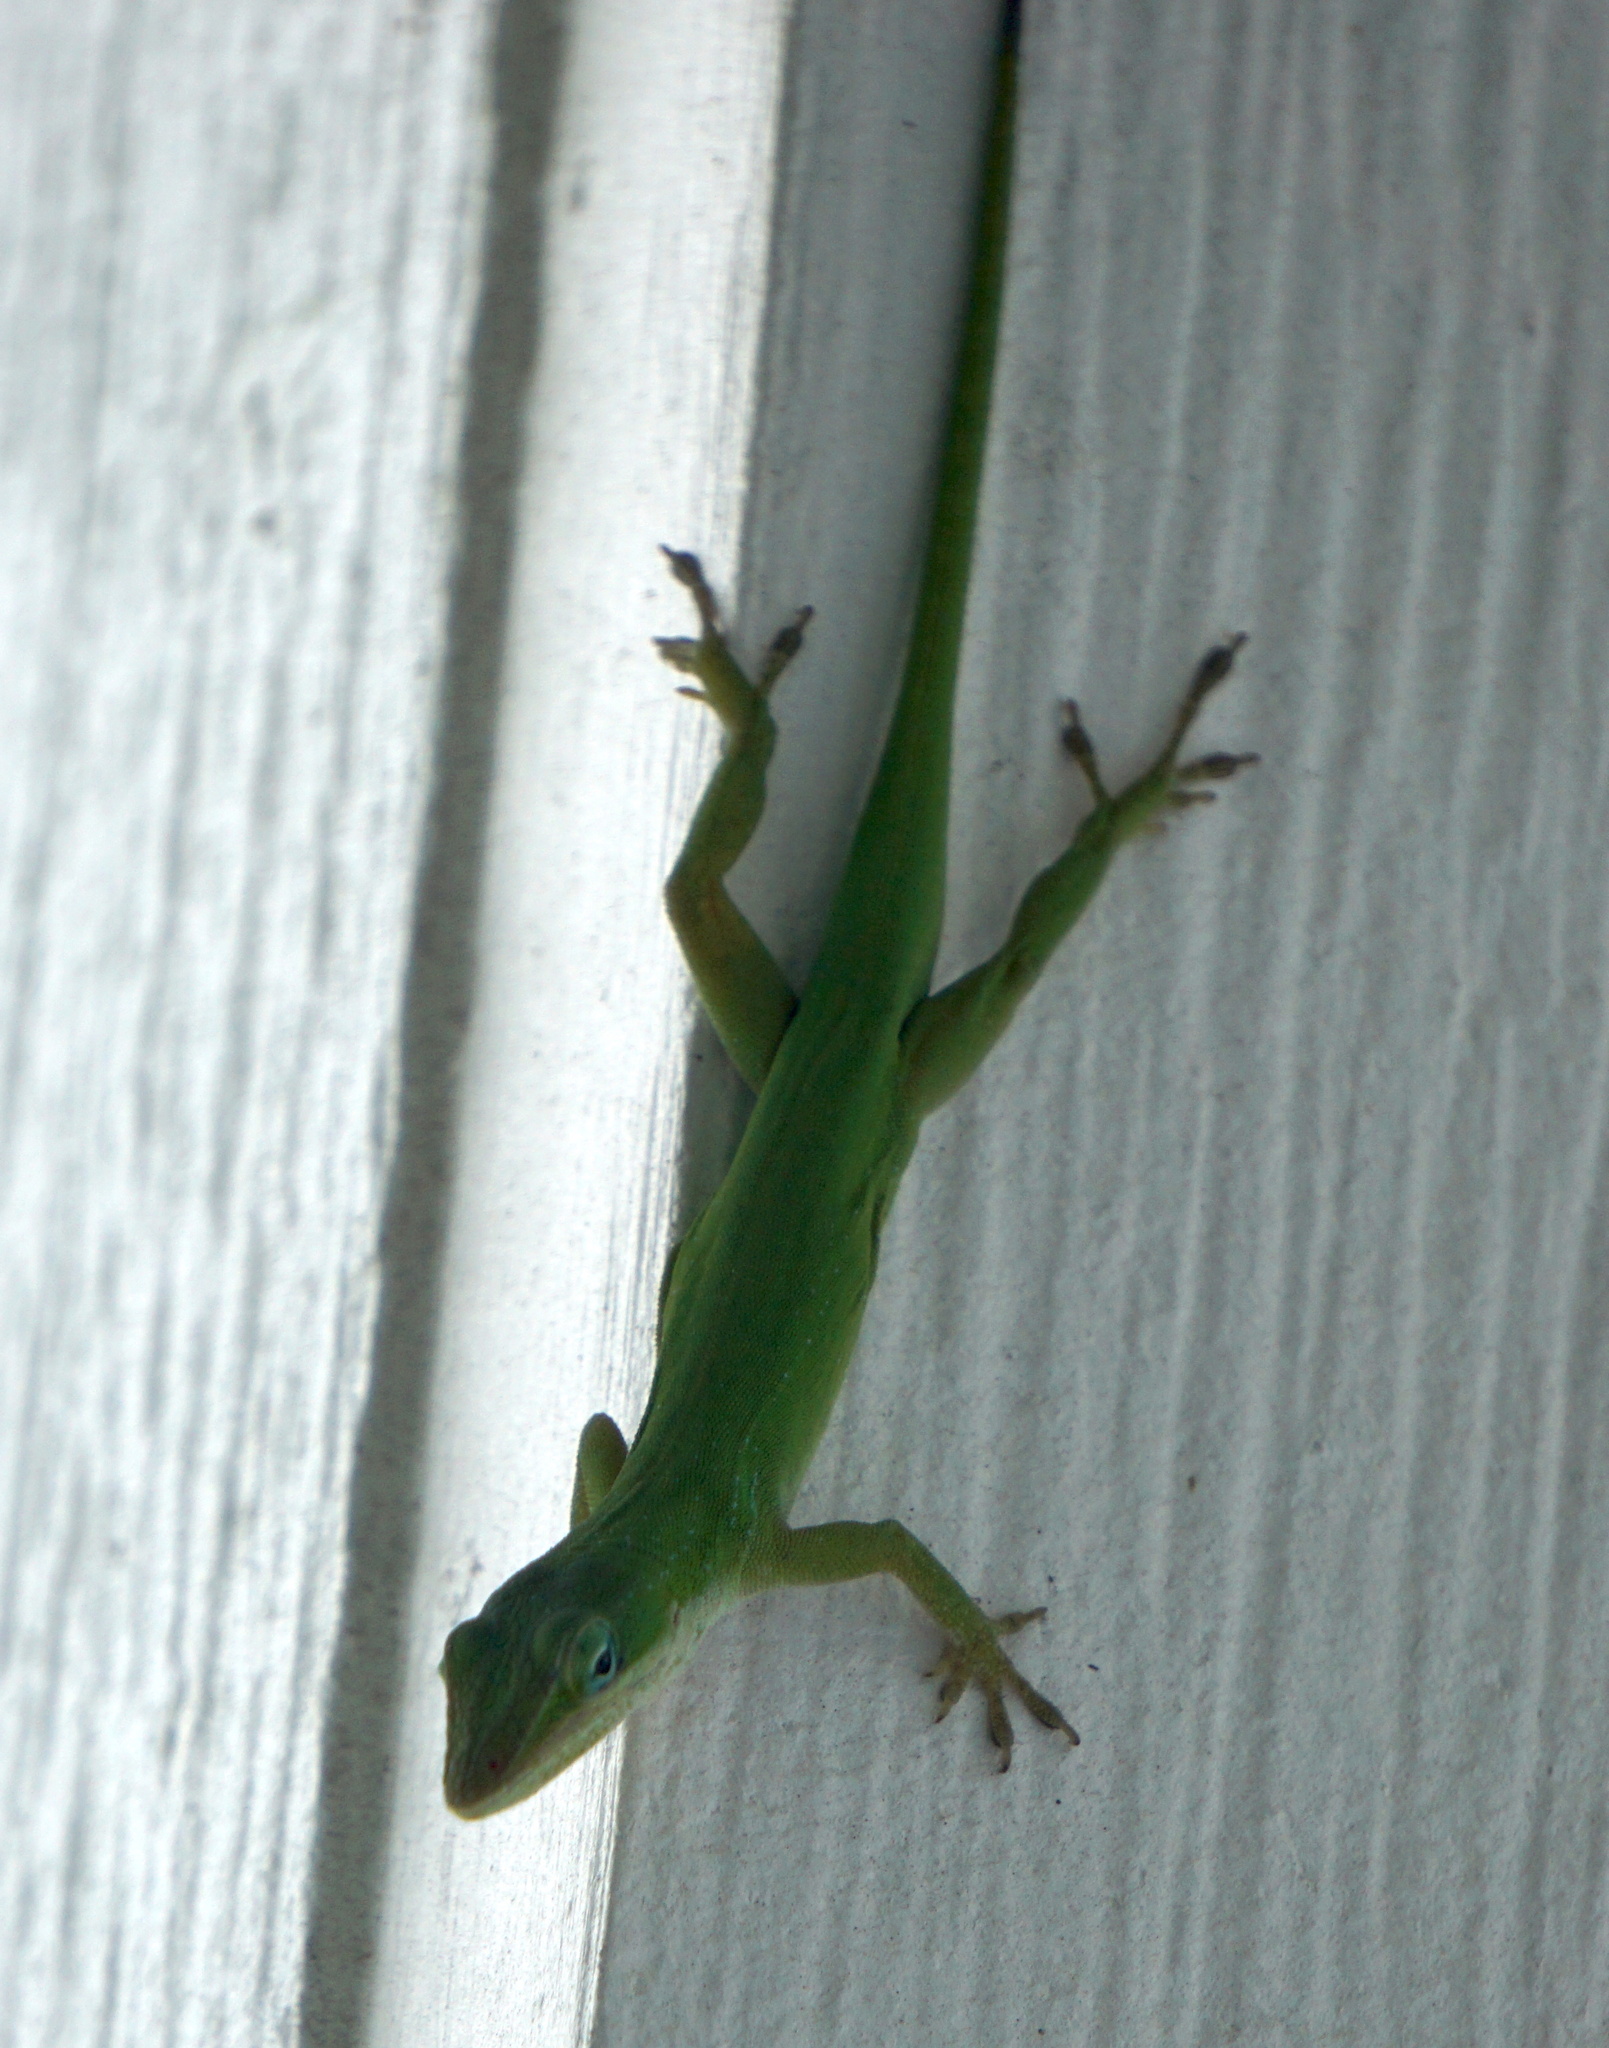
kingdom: Animalia
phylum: Chordata
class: Squamata
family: Dactyloidae
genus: Anolis
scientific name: Anolis carolinensis
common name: Green anole
